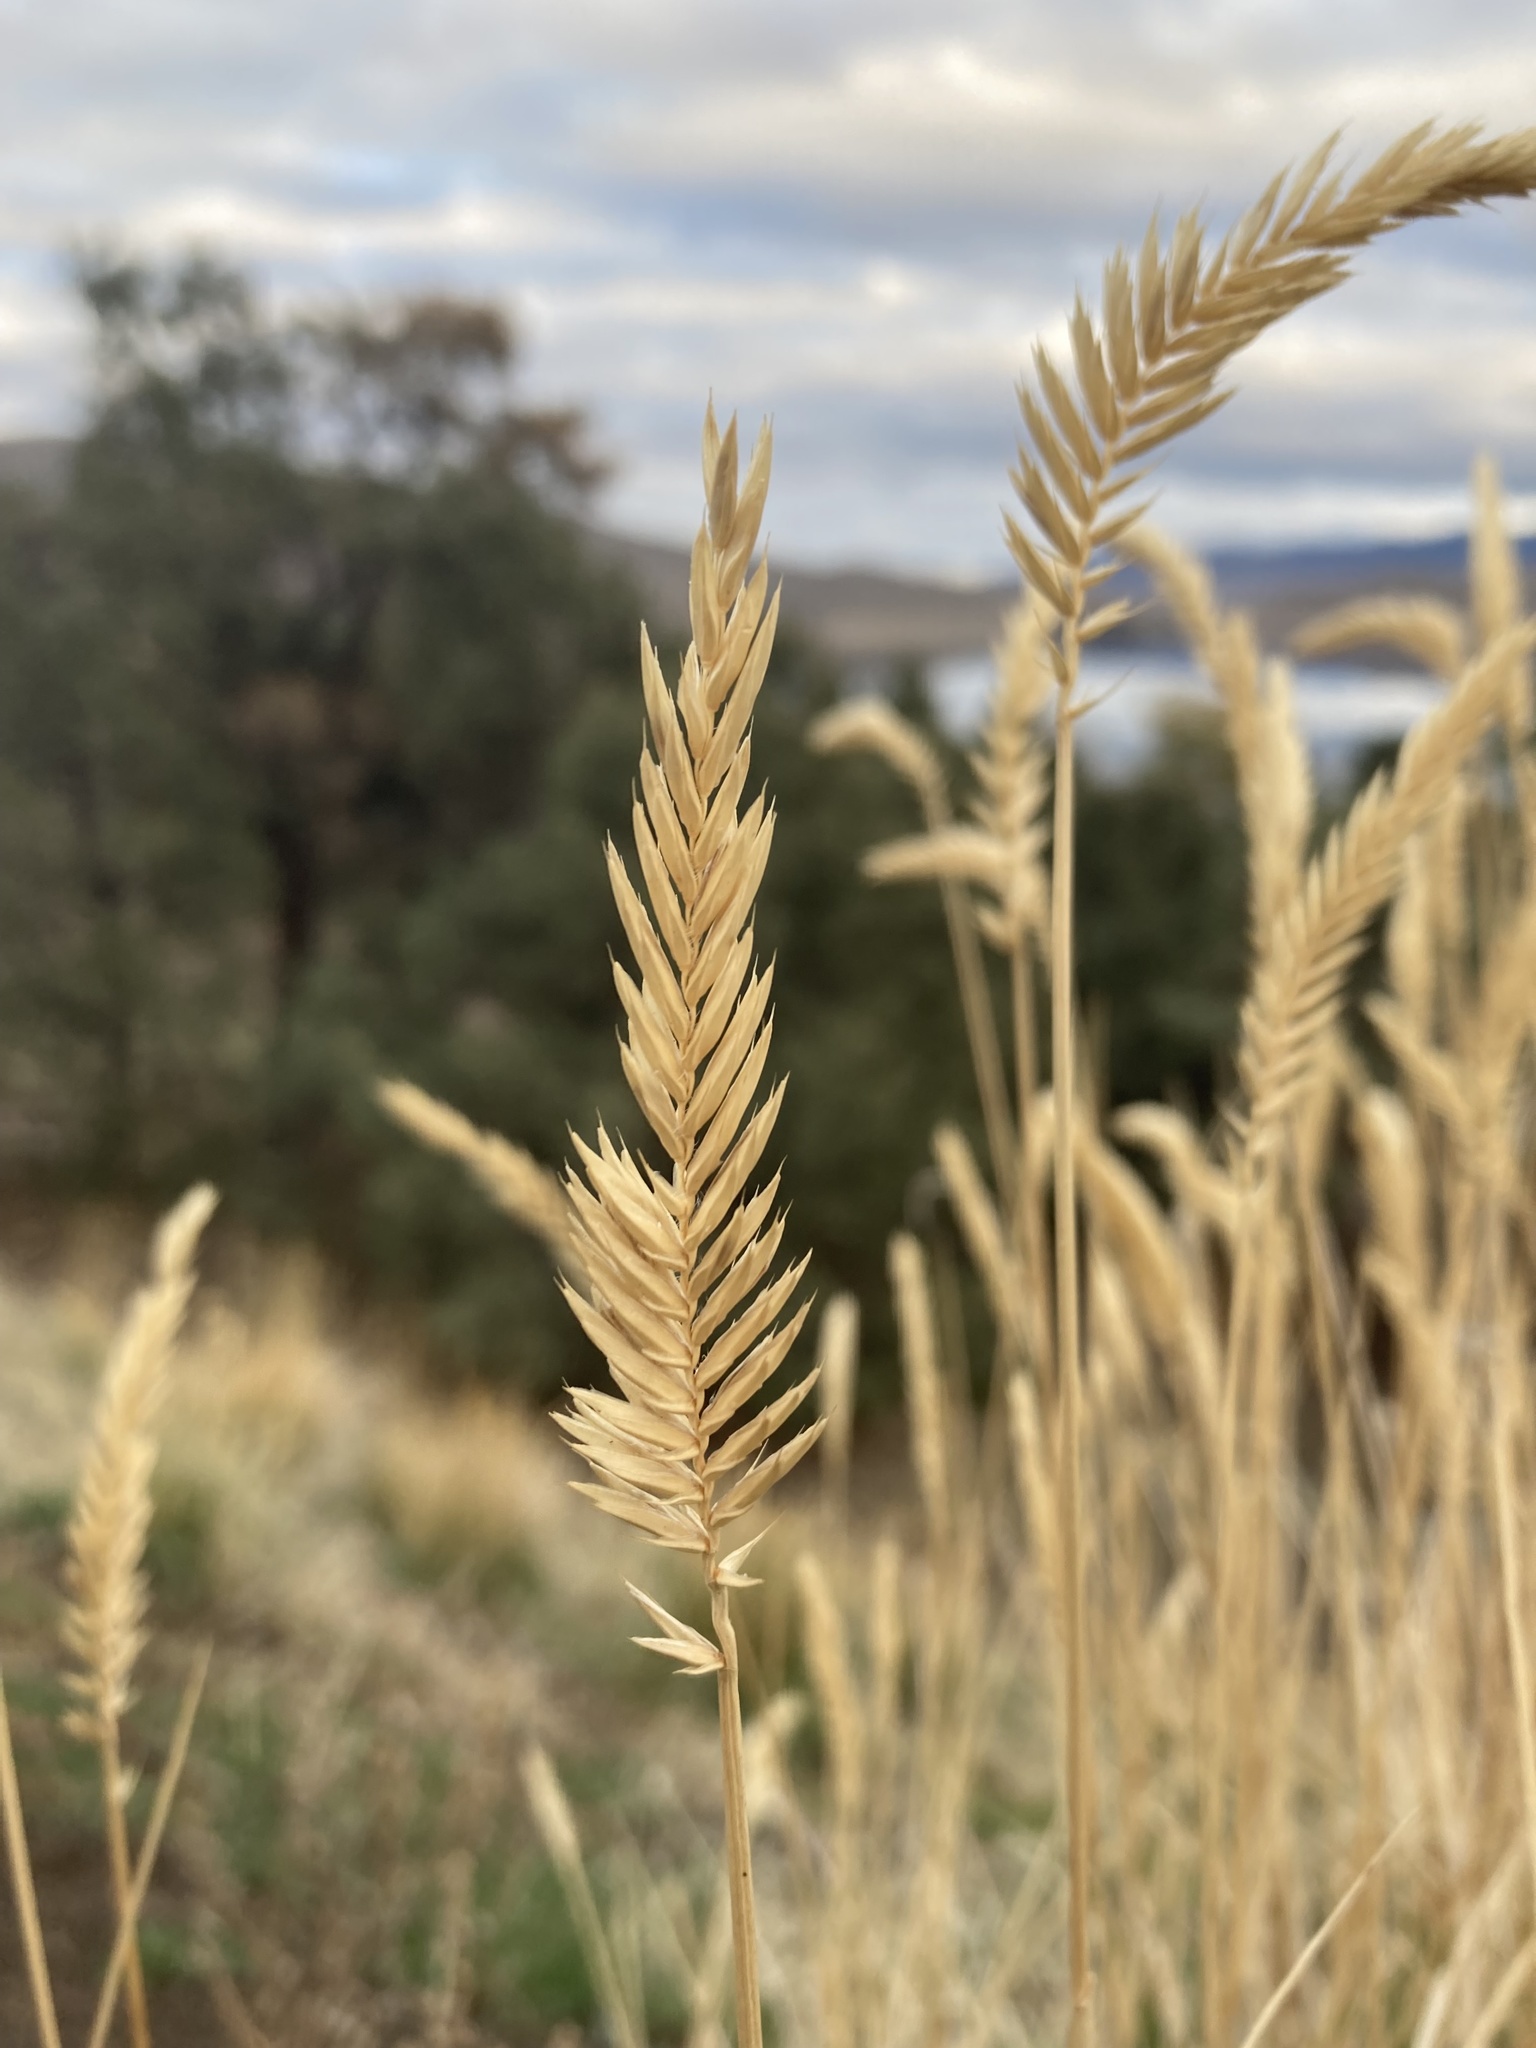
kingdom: Plantae
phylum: Tracheophyta
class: Liliopsida
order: Poales
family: Poaceae
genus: Agropyron
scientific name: Agropyron cristatum
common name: Crested wheatgrass
